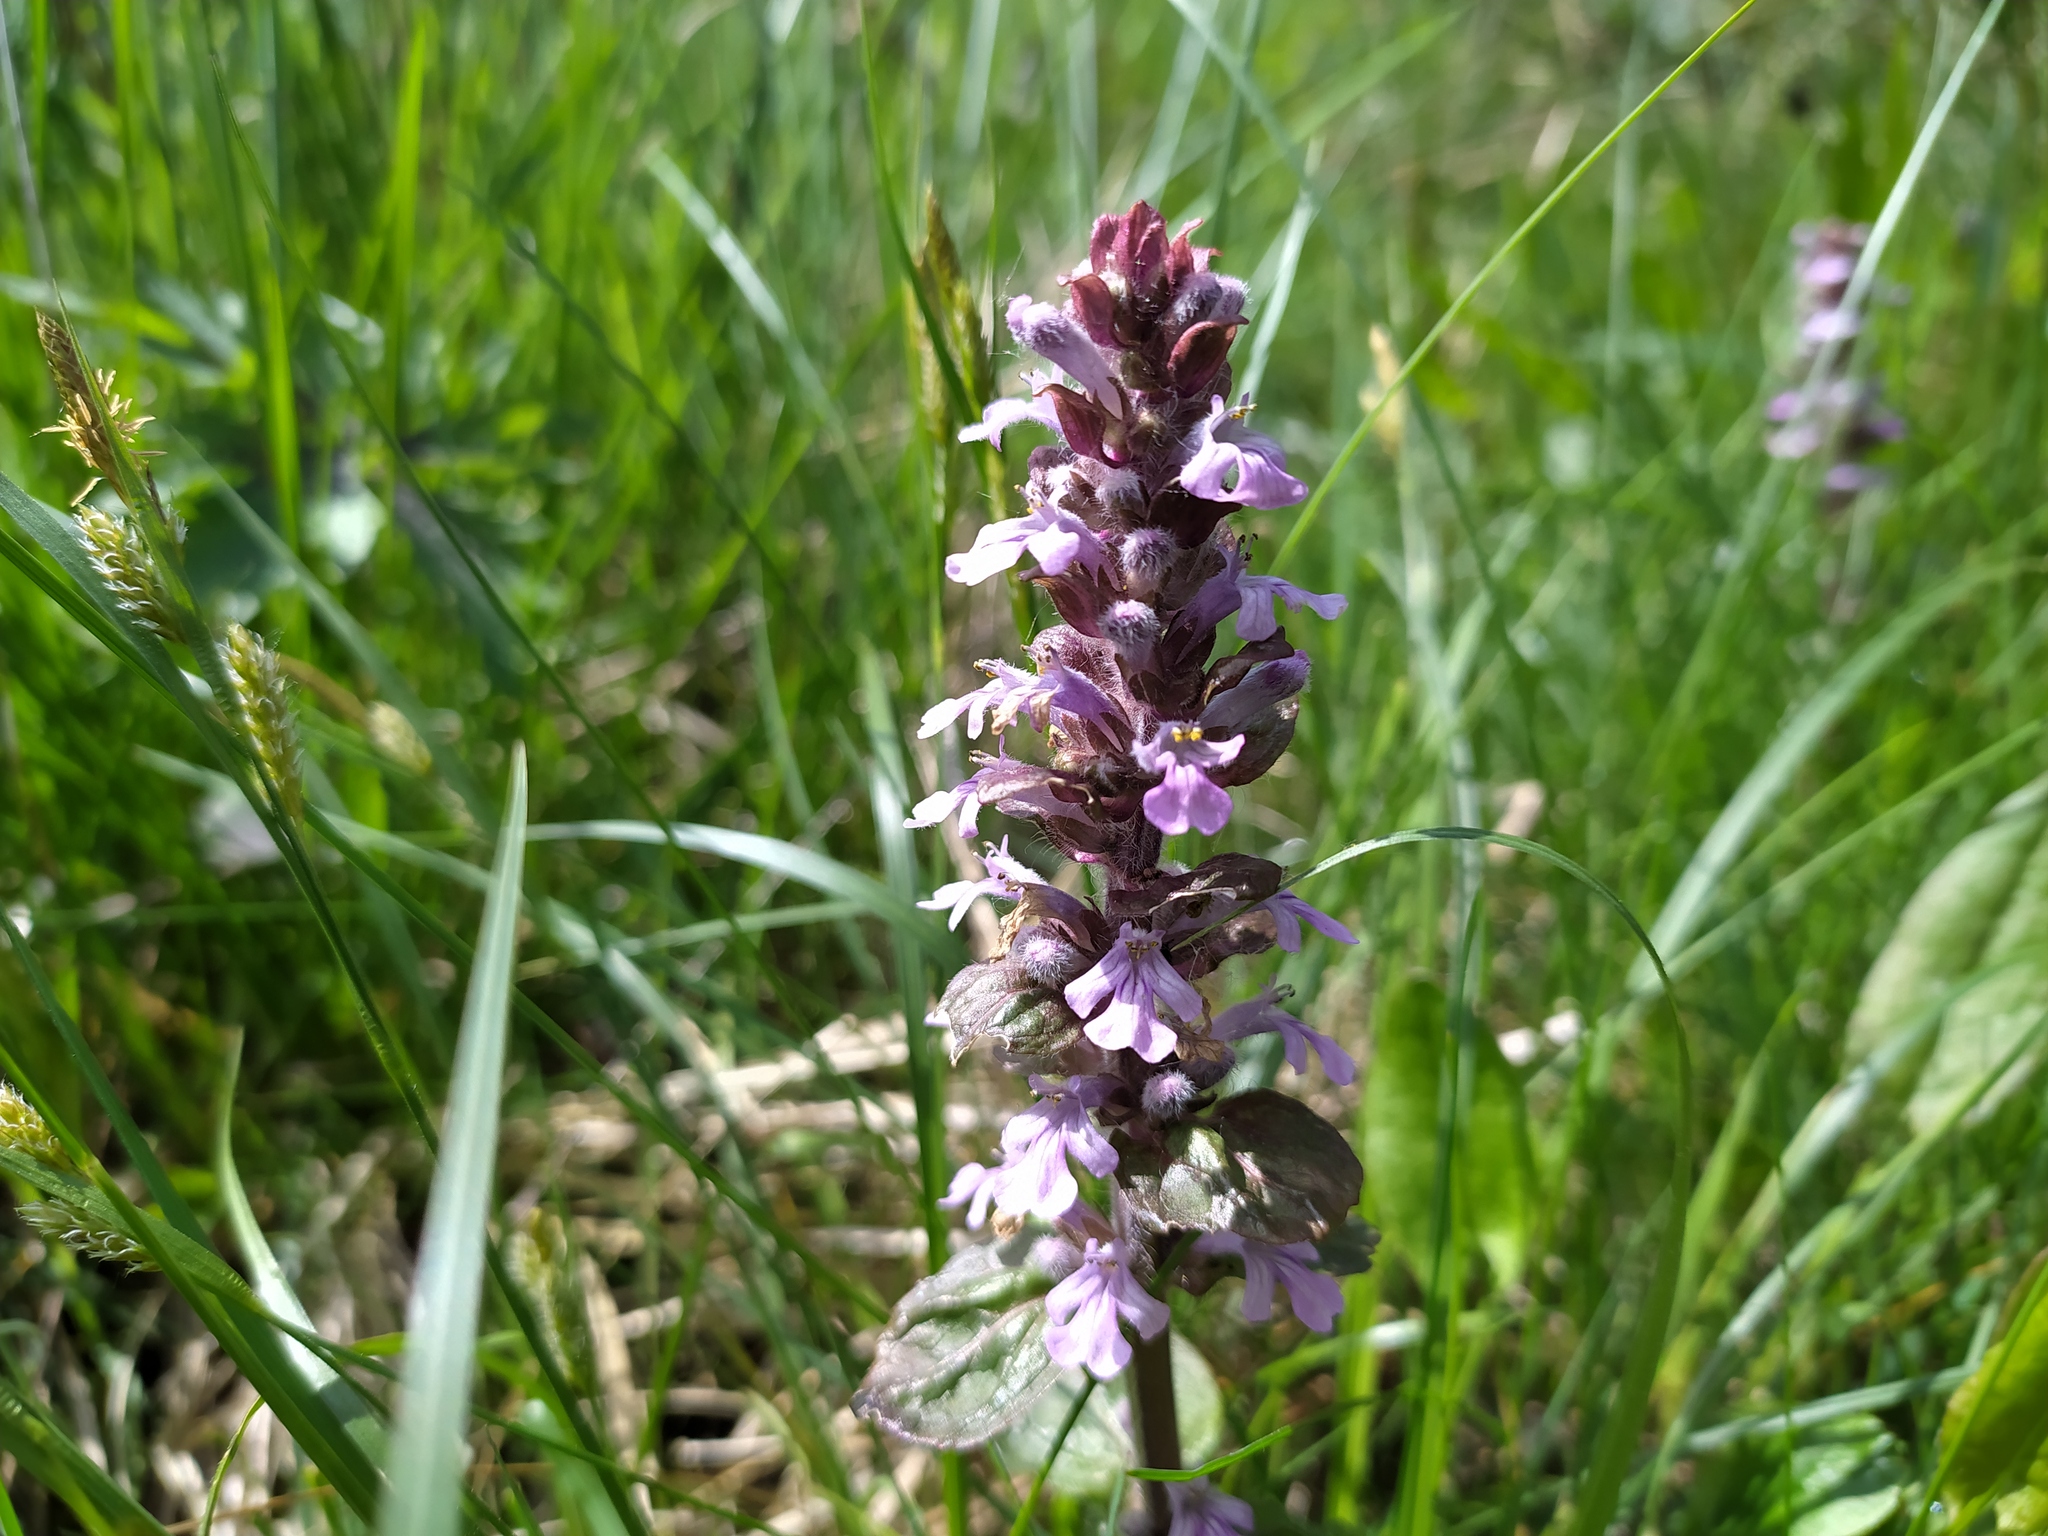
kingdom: Plantae
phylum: Tracheophyta
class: Magnoliopsida
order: Lamiales
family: Lamiaceae
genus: Ajuga
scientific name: Ajuga reptans
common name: Bugle
